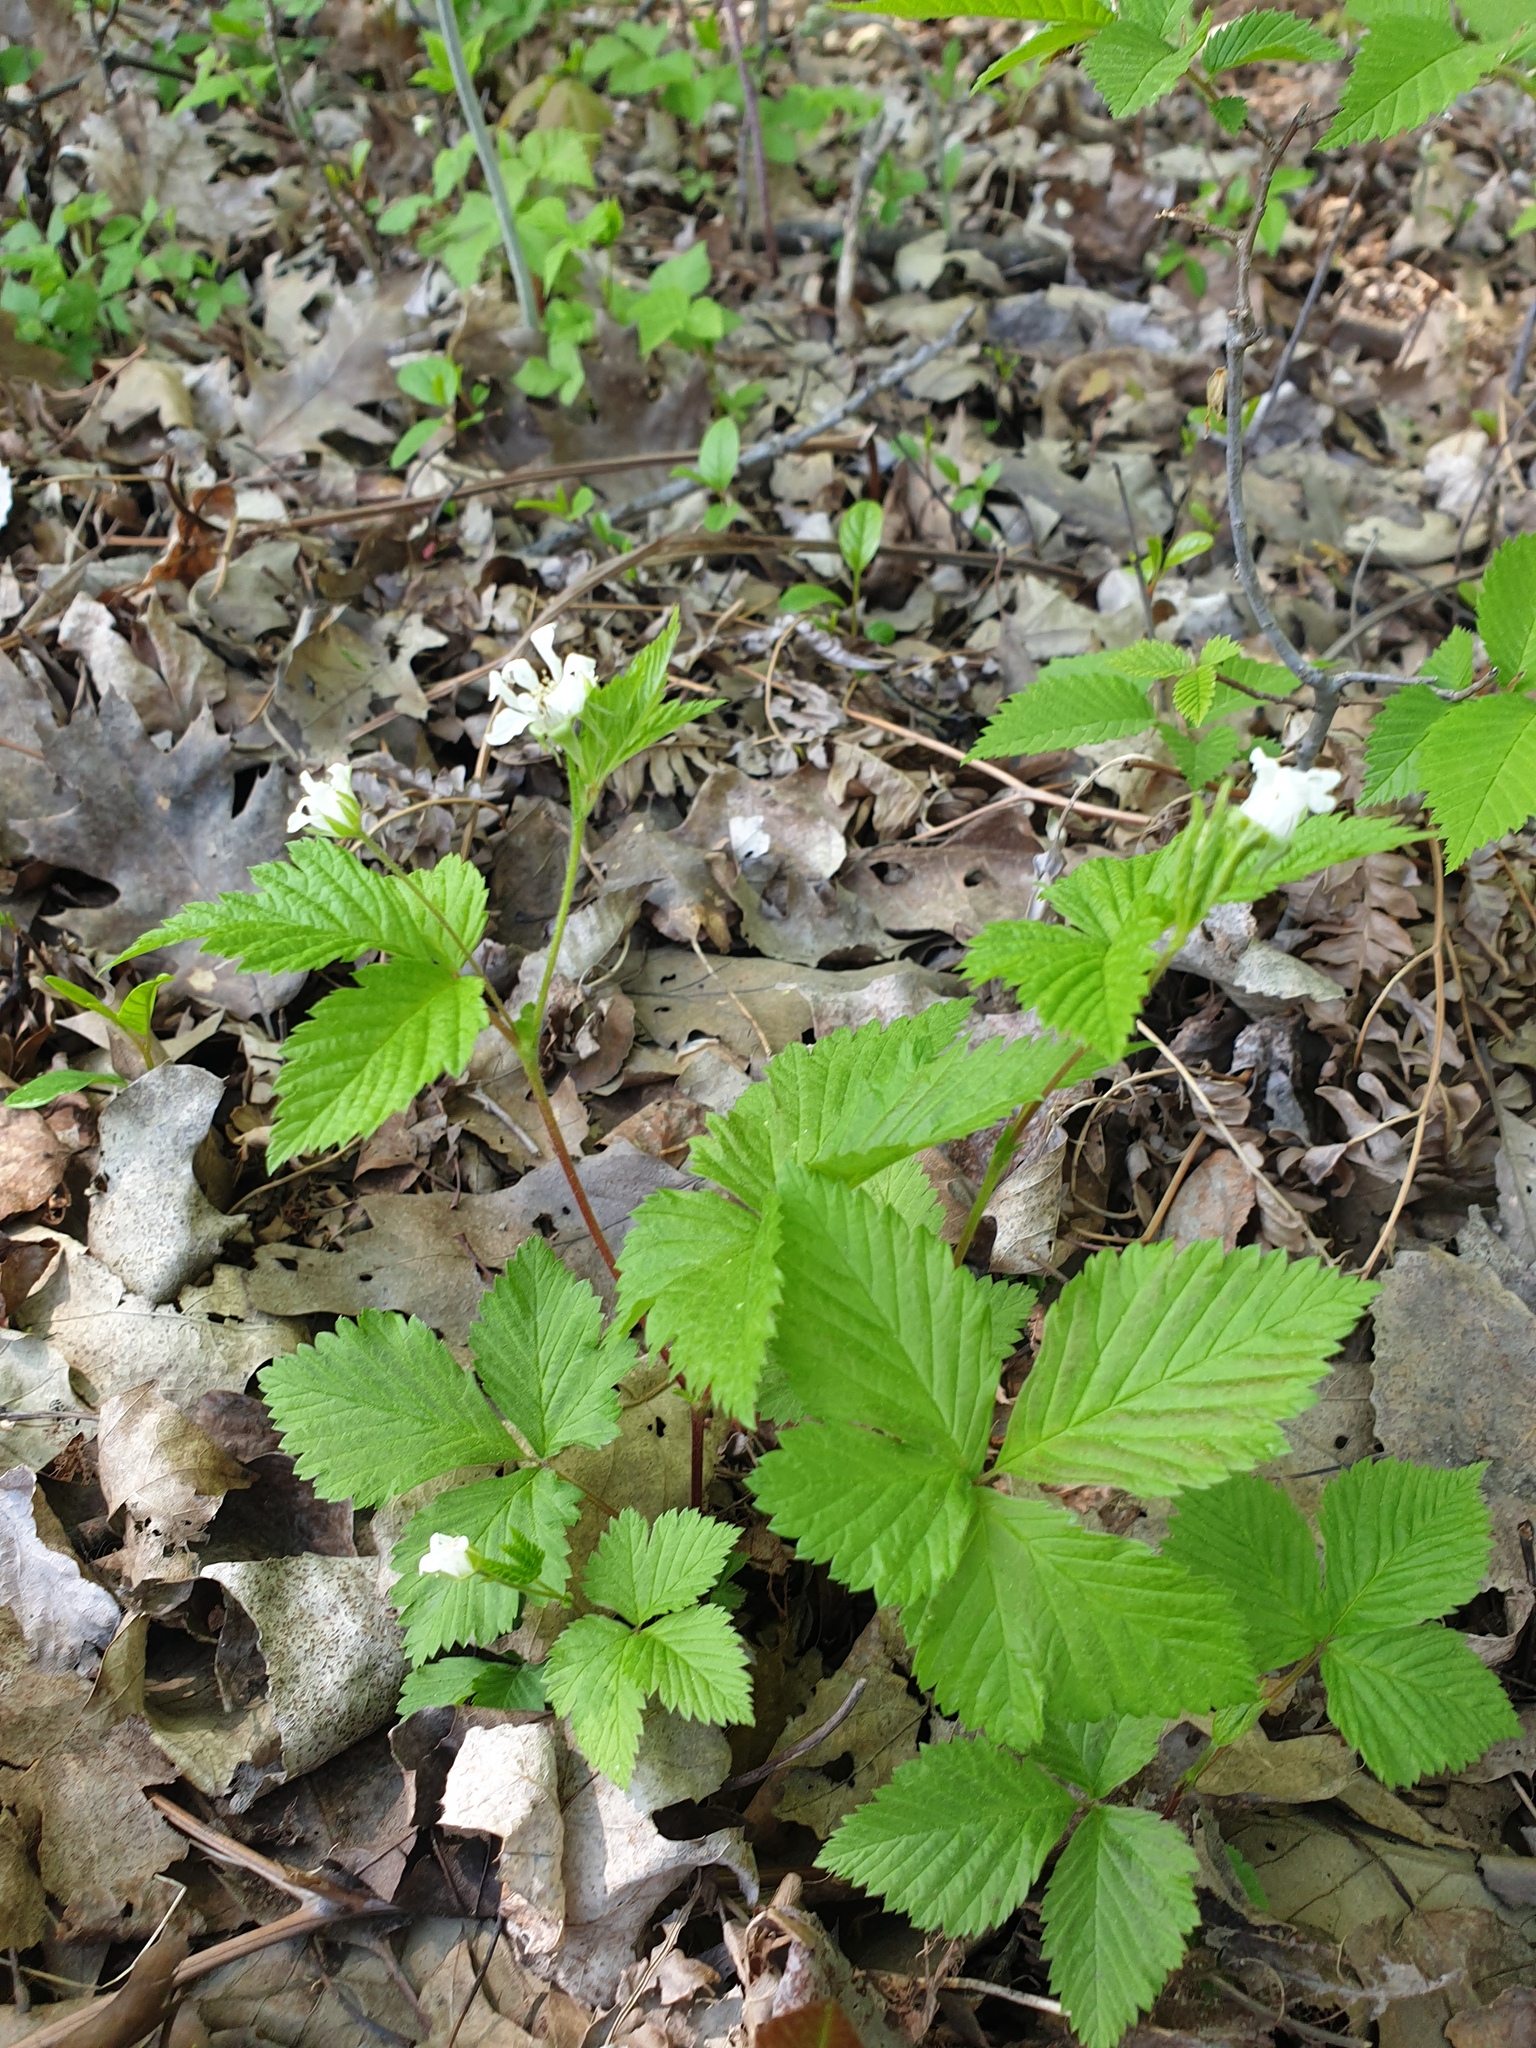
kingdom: Plantae
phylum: Tracheophyta
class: Magnoliopsida
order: Rosales
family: Rosaceae
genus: Rubus
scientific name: Rubus pubescens
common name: Dwarf raspberry
